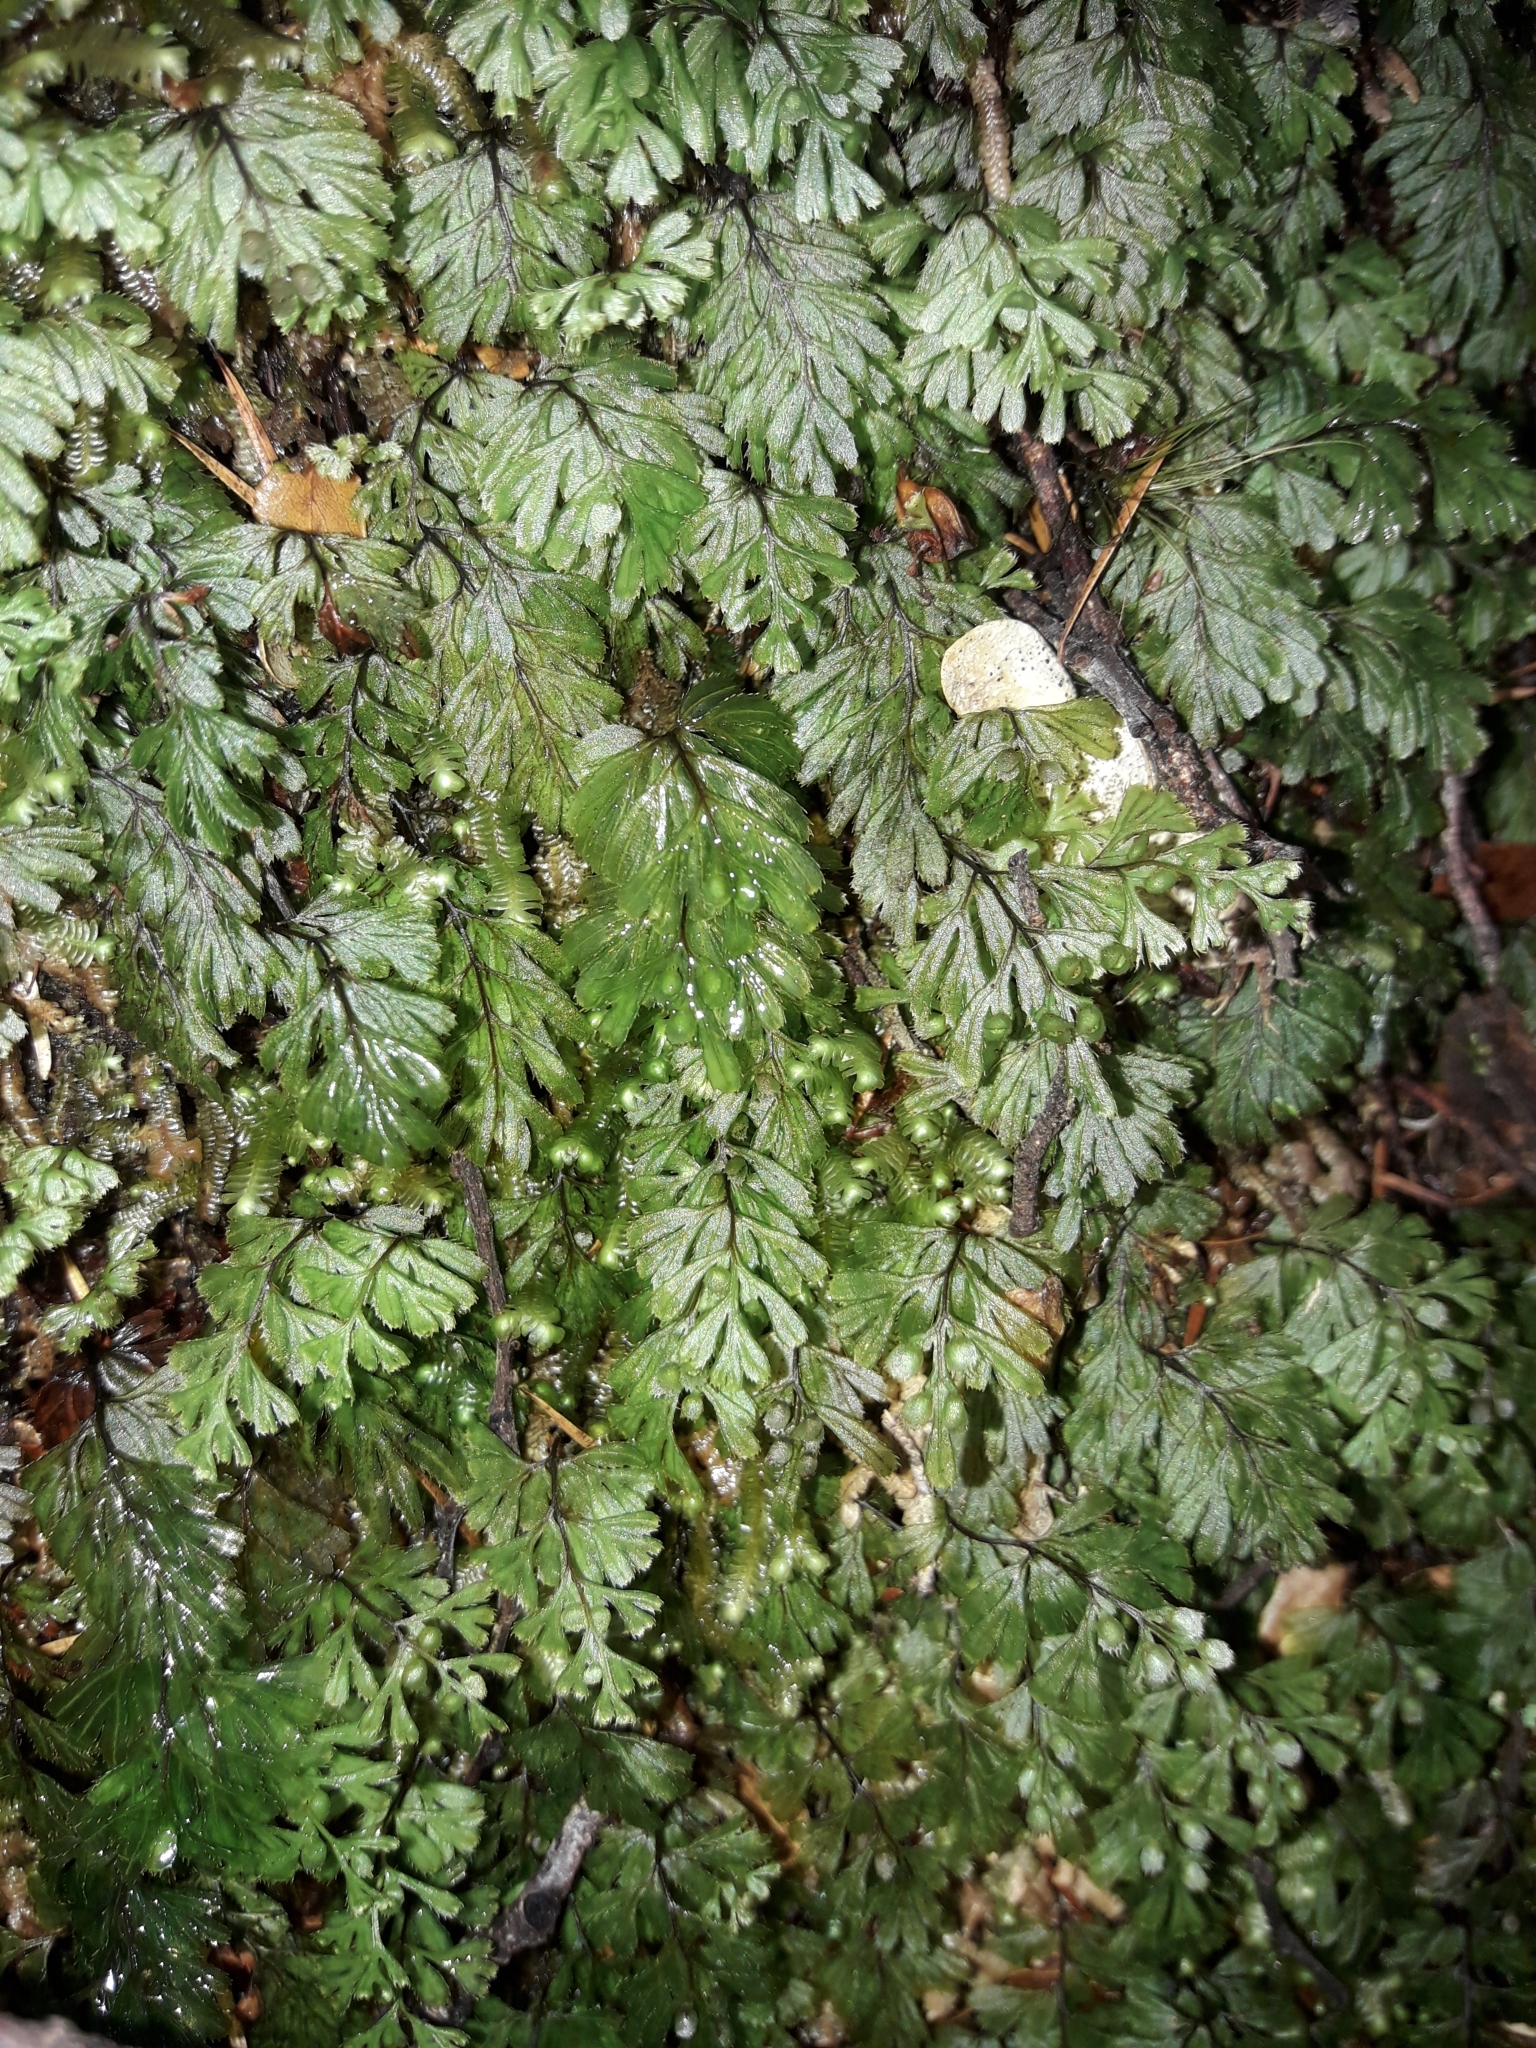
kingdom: Plantae
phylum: Tracheophyta
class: Polypodiopsida
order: Hymenophyllales
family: Hymenophyllaceae
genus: Hymenophyllum
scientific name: Hymenophyllum revolutum
